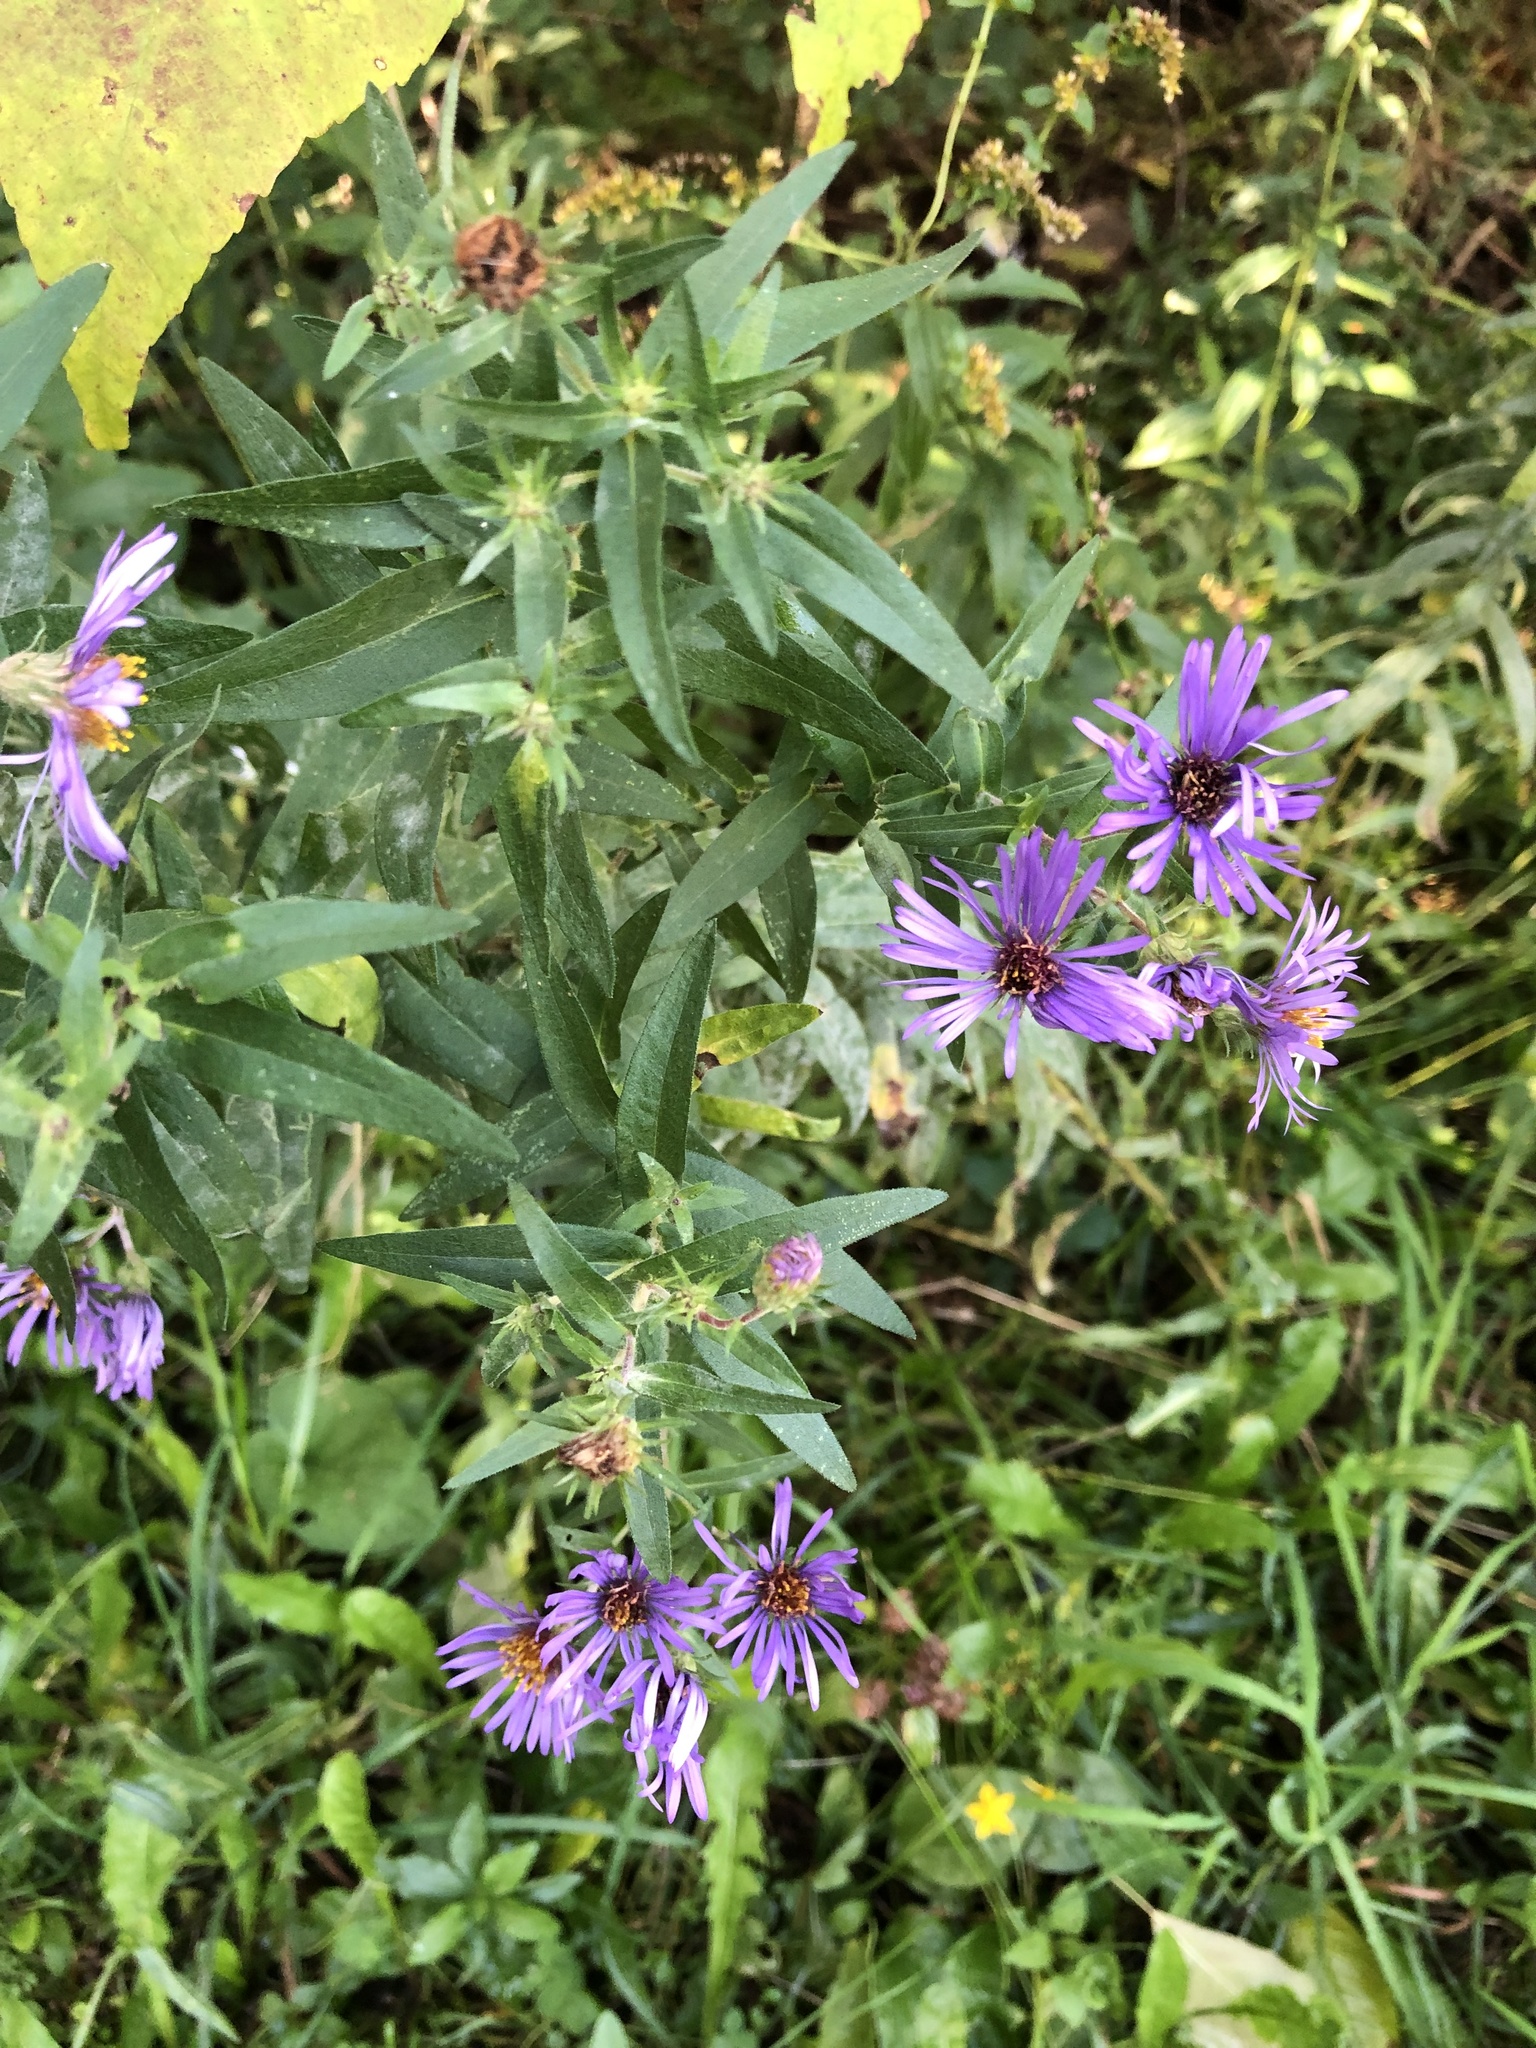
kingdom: Plantae
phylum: Tracheophyta
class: Magnoliopsida
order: Asterales
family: Asteraceae
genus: Symphyotrichum
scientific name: Symphyotrichum novae-angliae
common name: Michaelmas daisy
